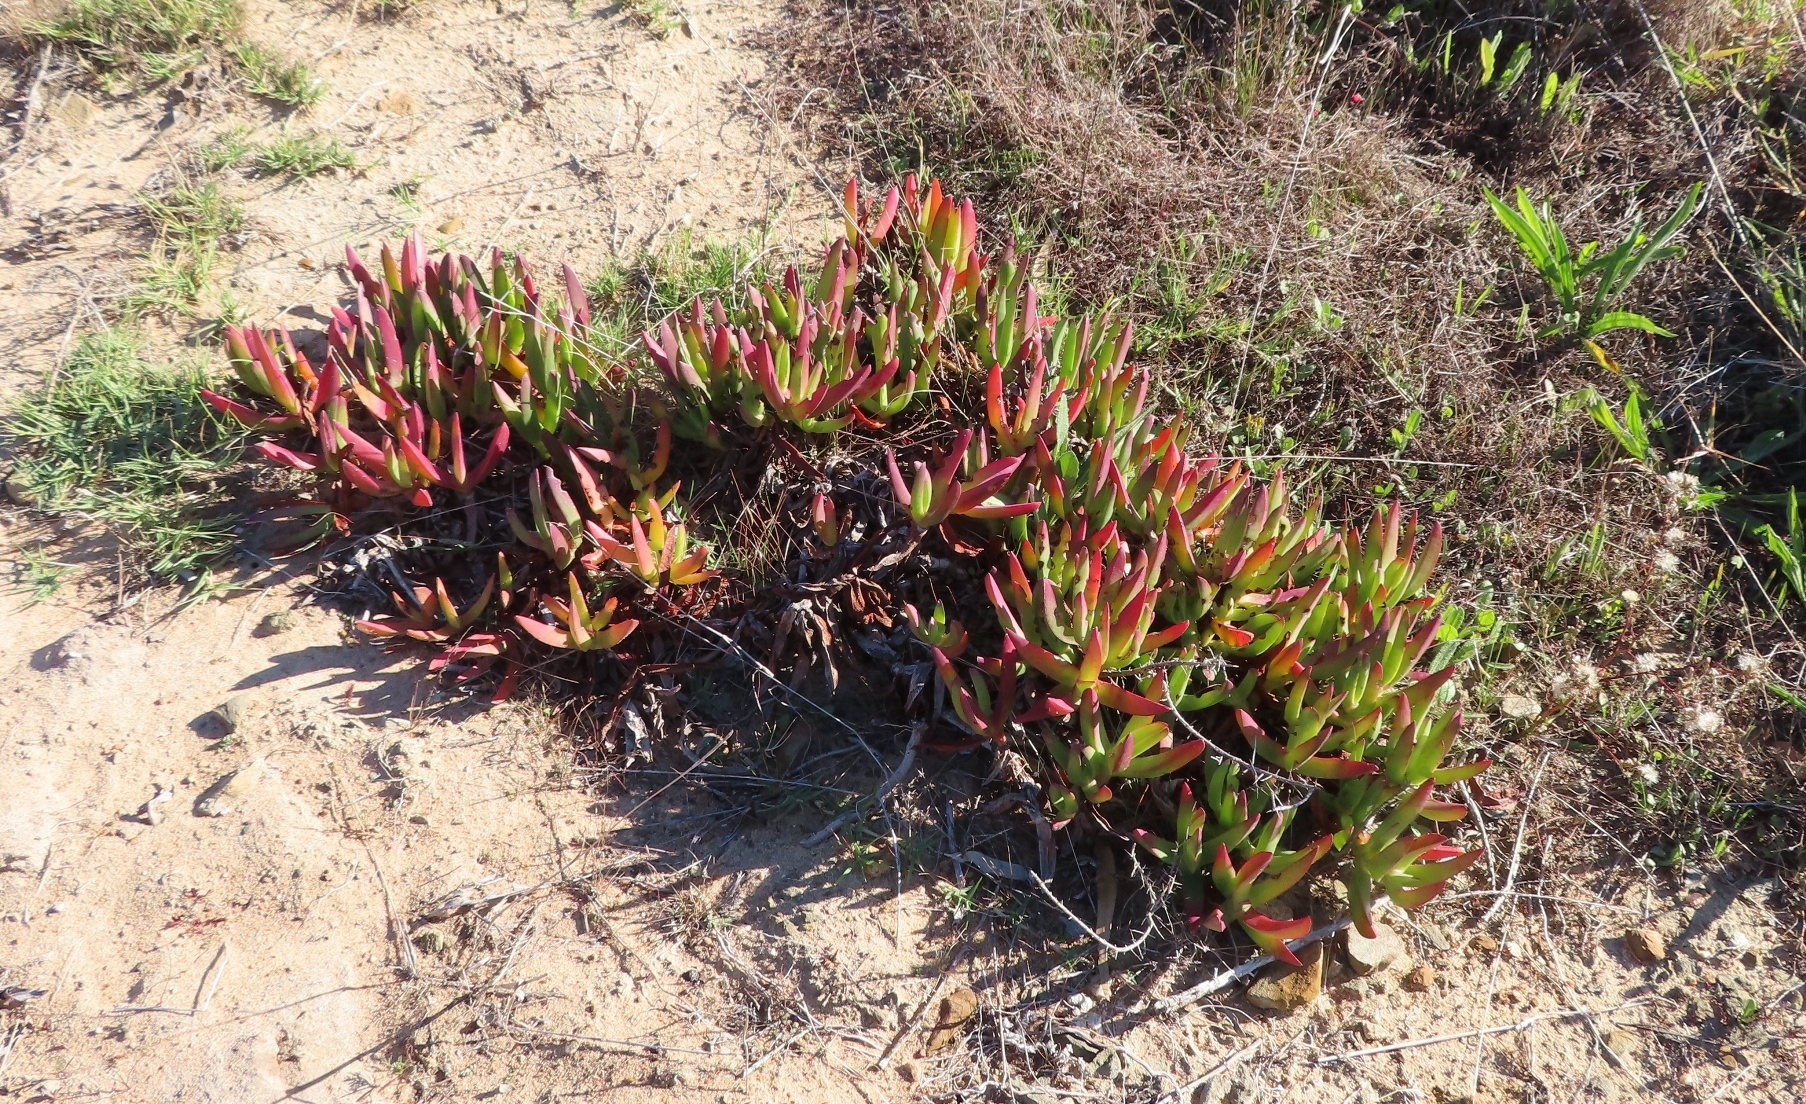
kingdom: Plantae
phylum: Tracheophyta
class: Magnoliopsida
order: Caryophyllales
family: Aizoaceae
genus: Carpobrotus
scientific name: Carpobrotus edulis
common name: Hottentot-fig
